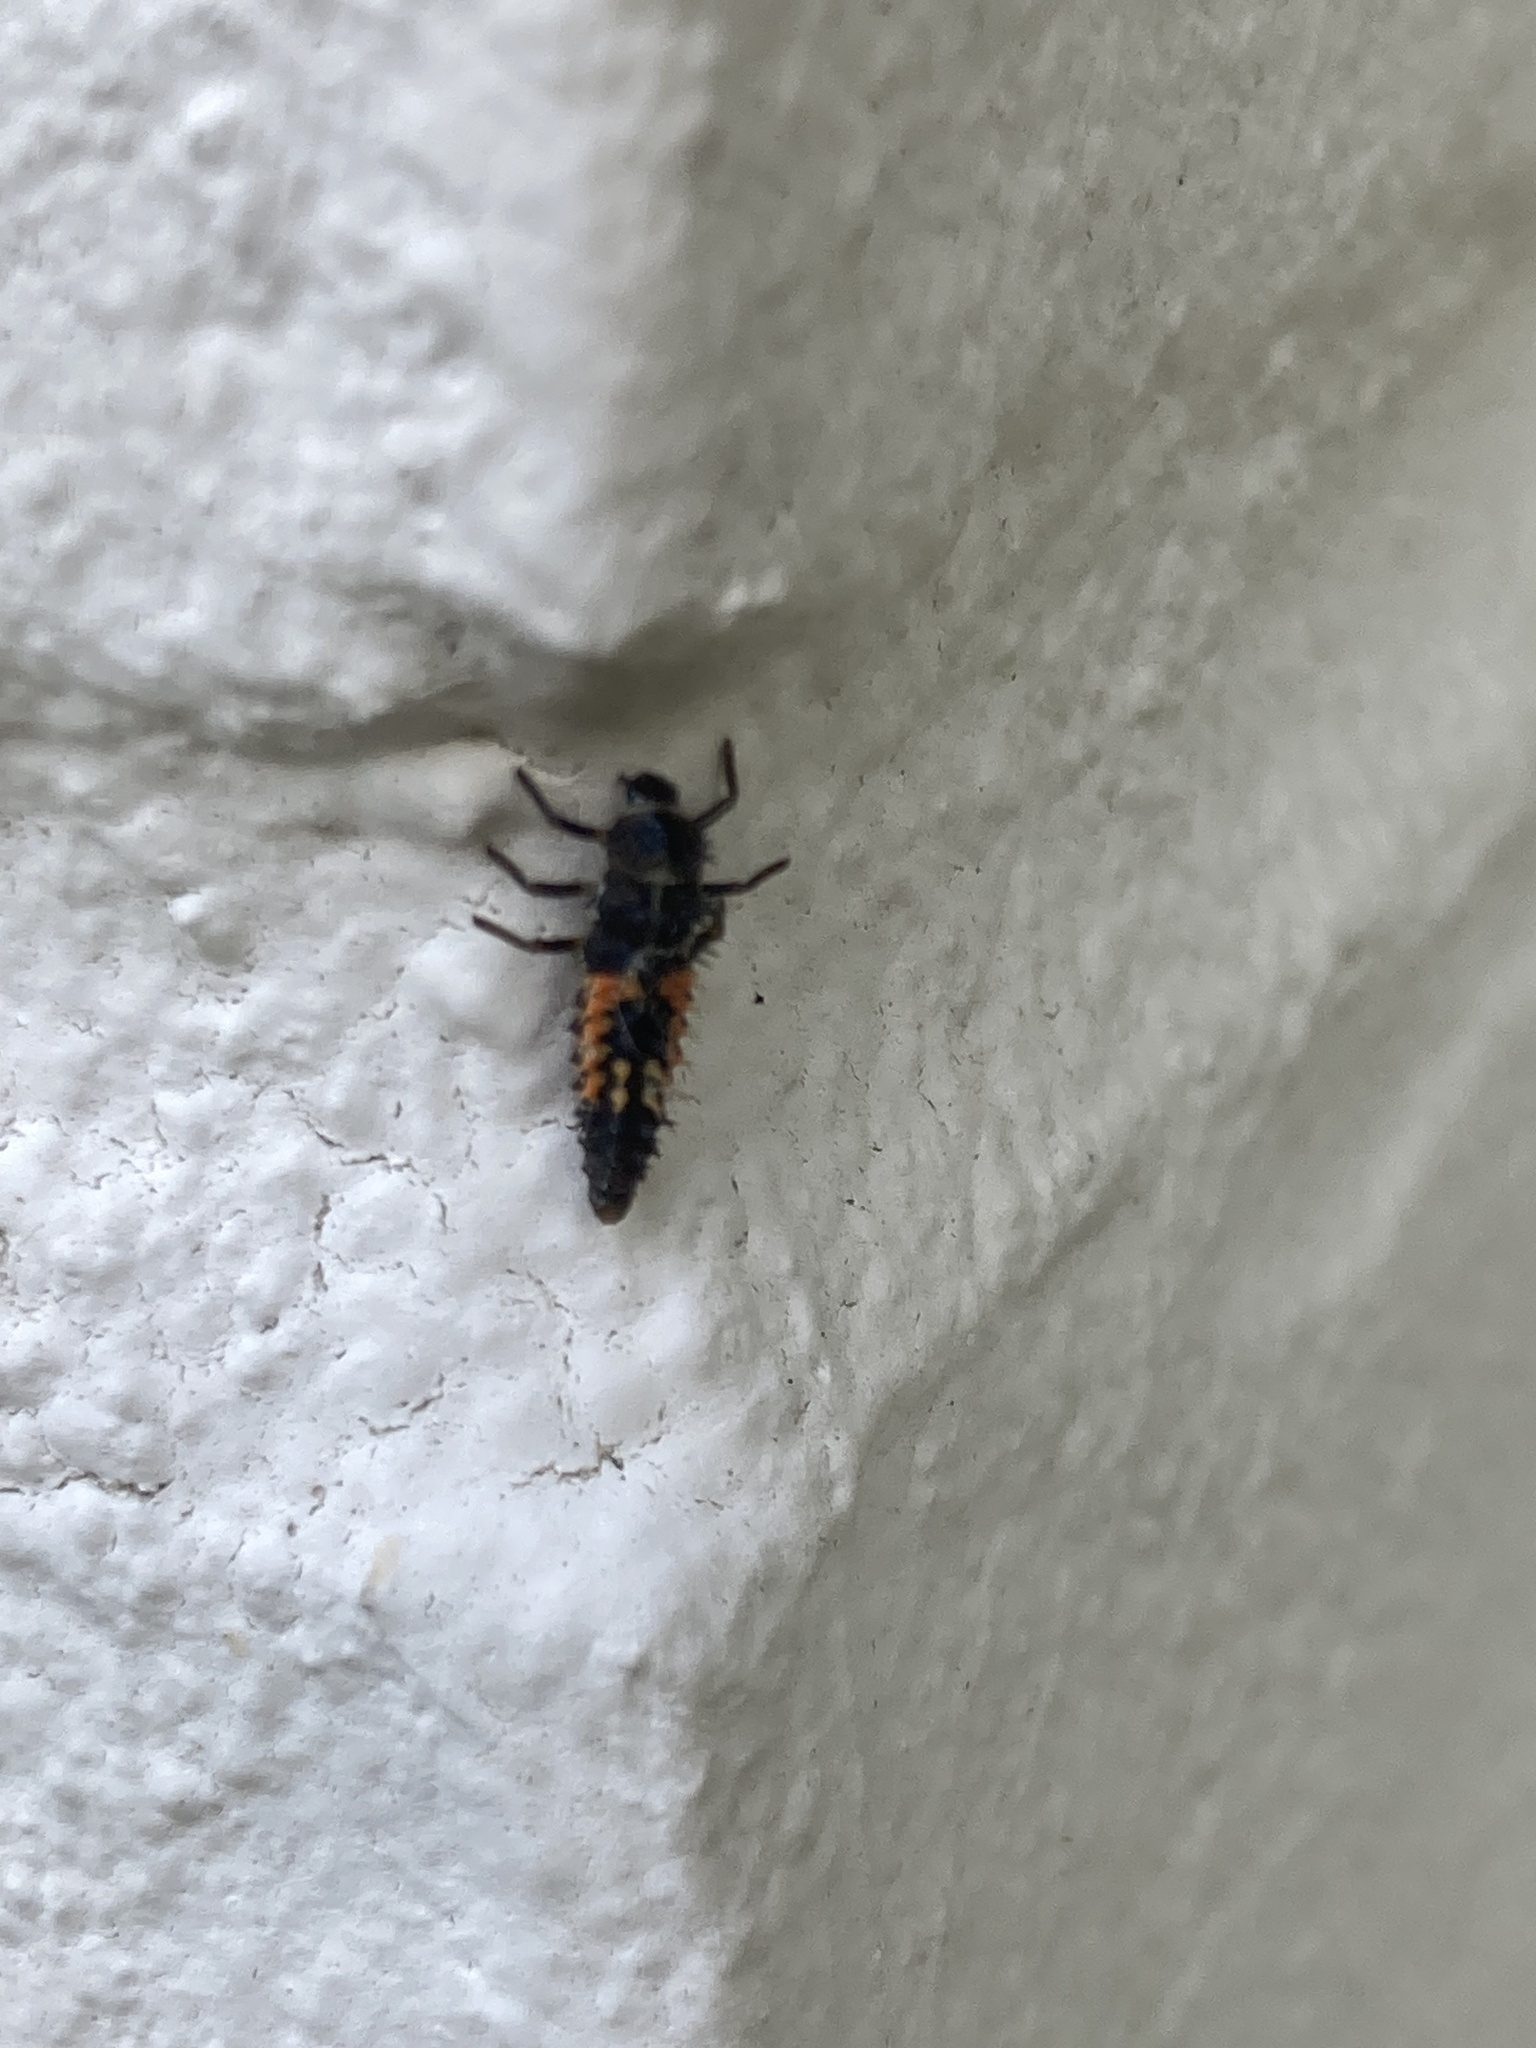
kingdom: Animalia
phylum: Arthropoda
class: Insecta
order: Coleoptera
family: Coccinellidae
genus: Harmonia
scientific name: Harmonia axyridis
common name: Harlequin ladybird
